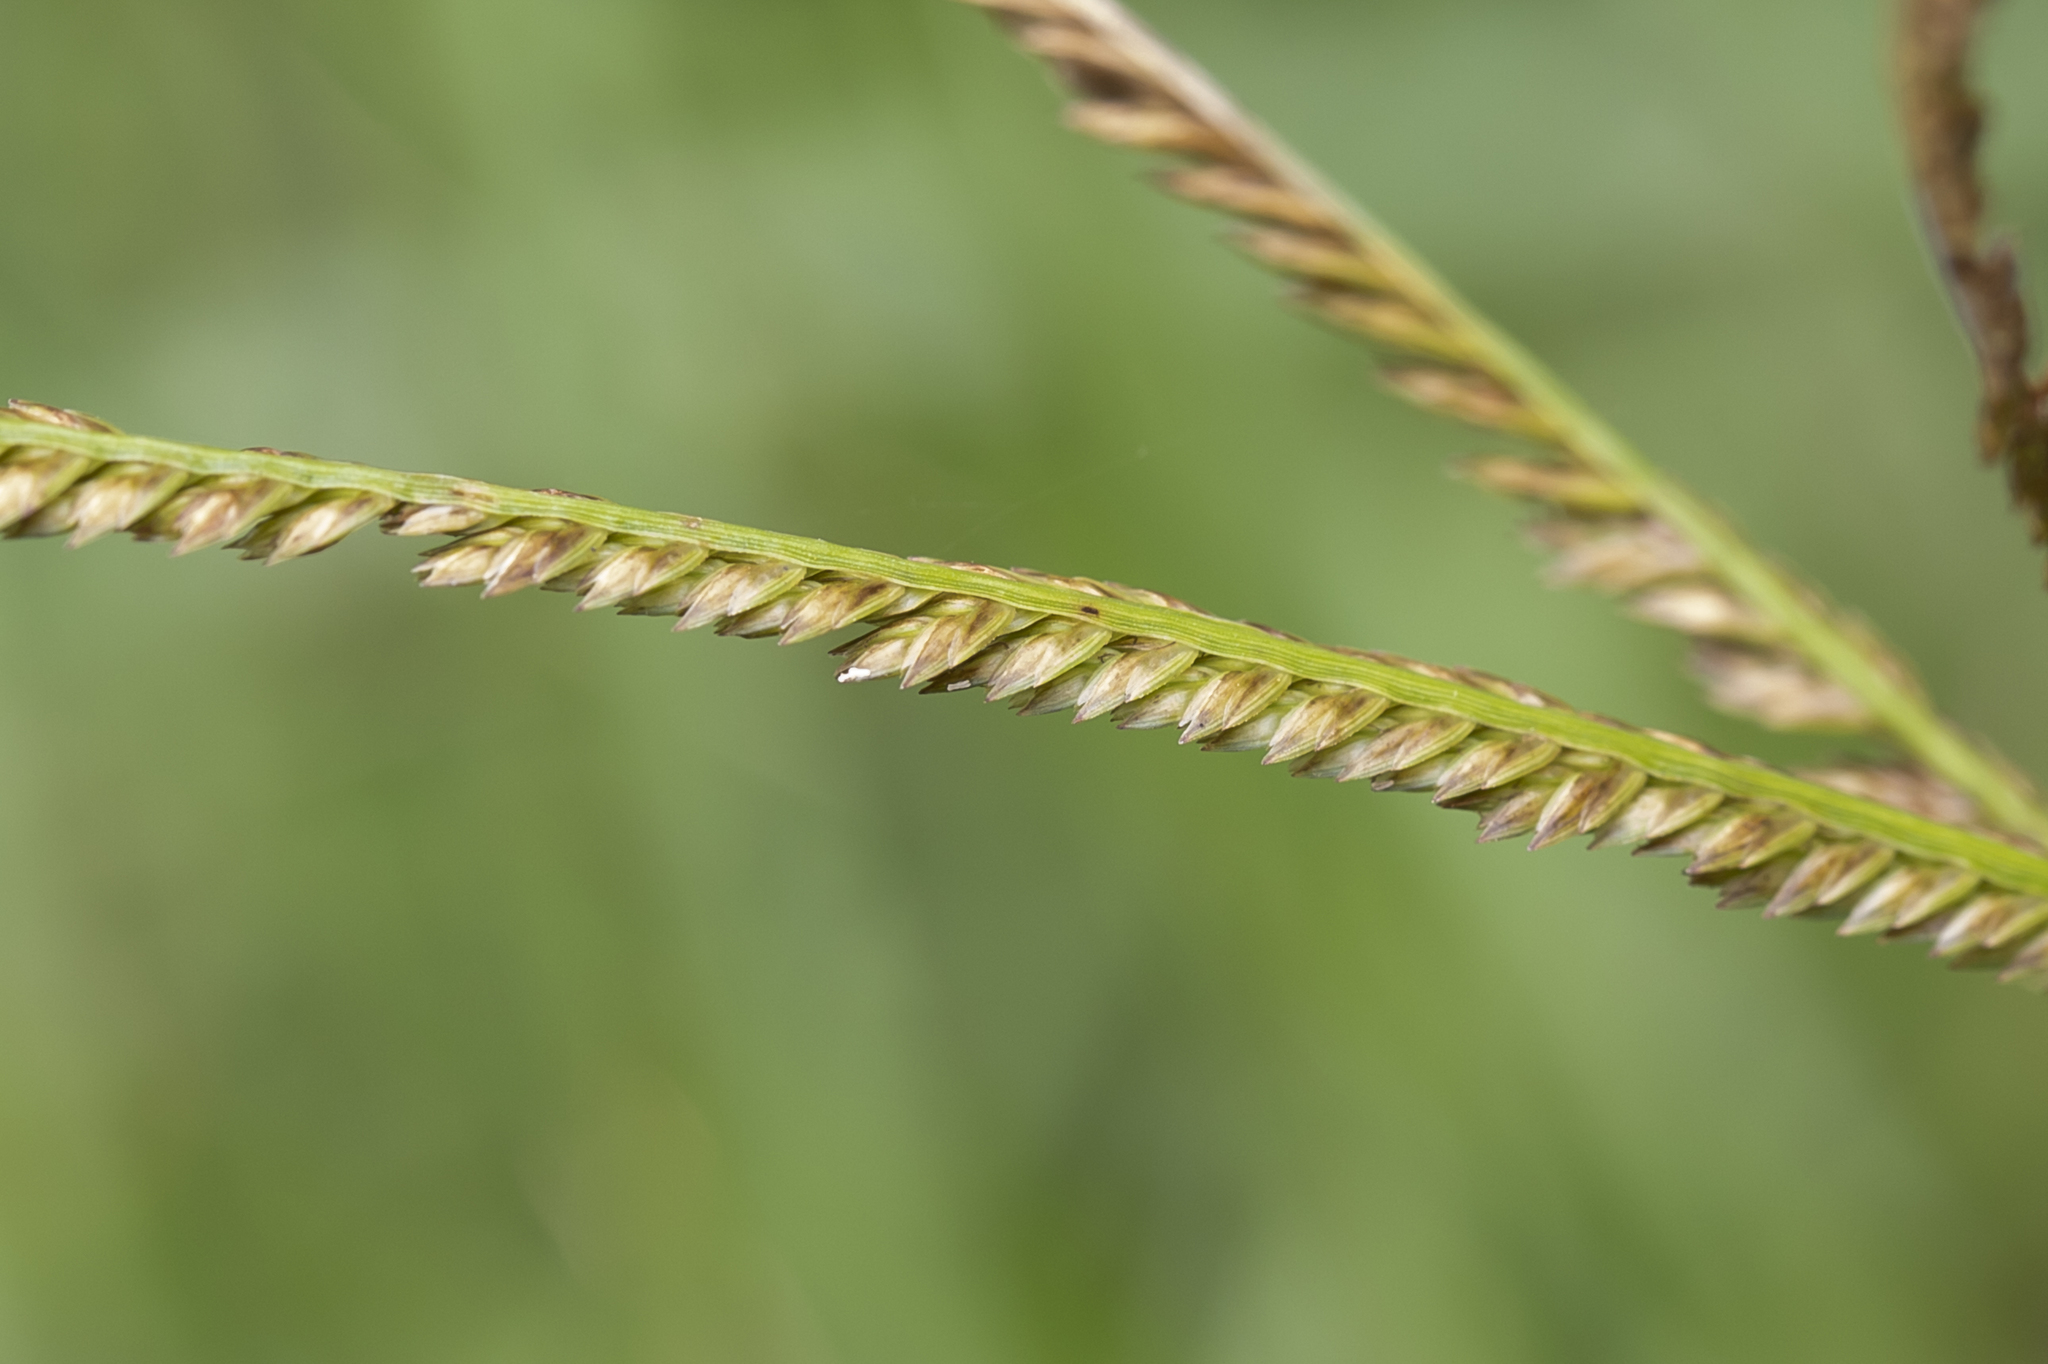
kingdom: Plantae
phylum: Tracheophyta
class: Liliopsida
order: Poales
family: Poaceae
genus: Eleusine
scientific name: Eleusine indica
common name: Yard-grass
